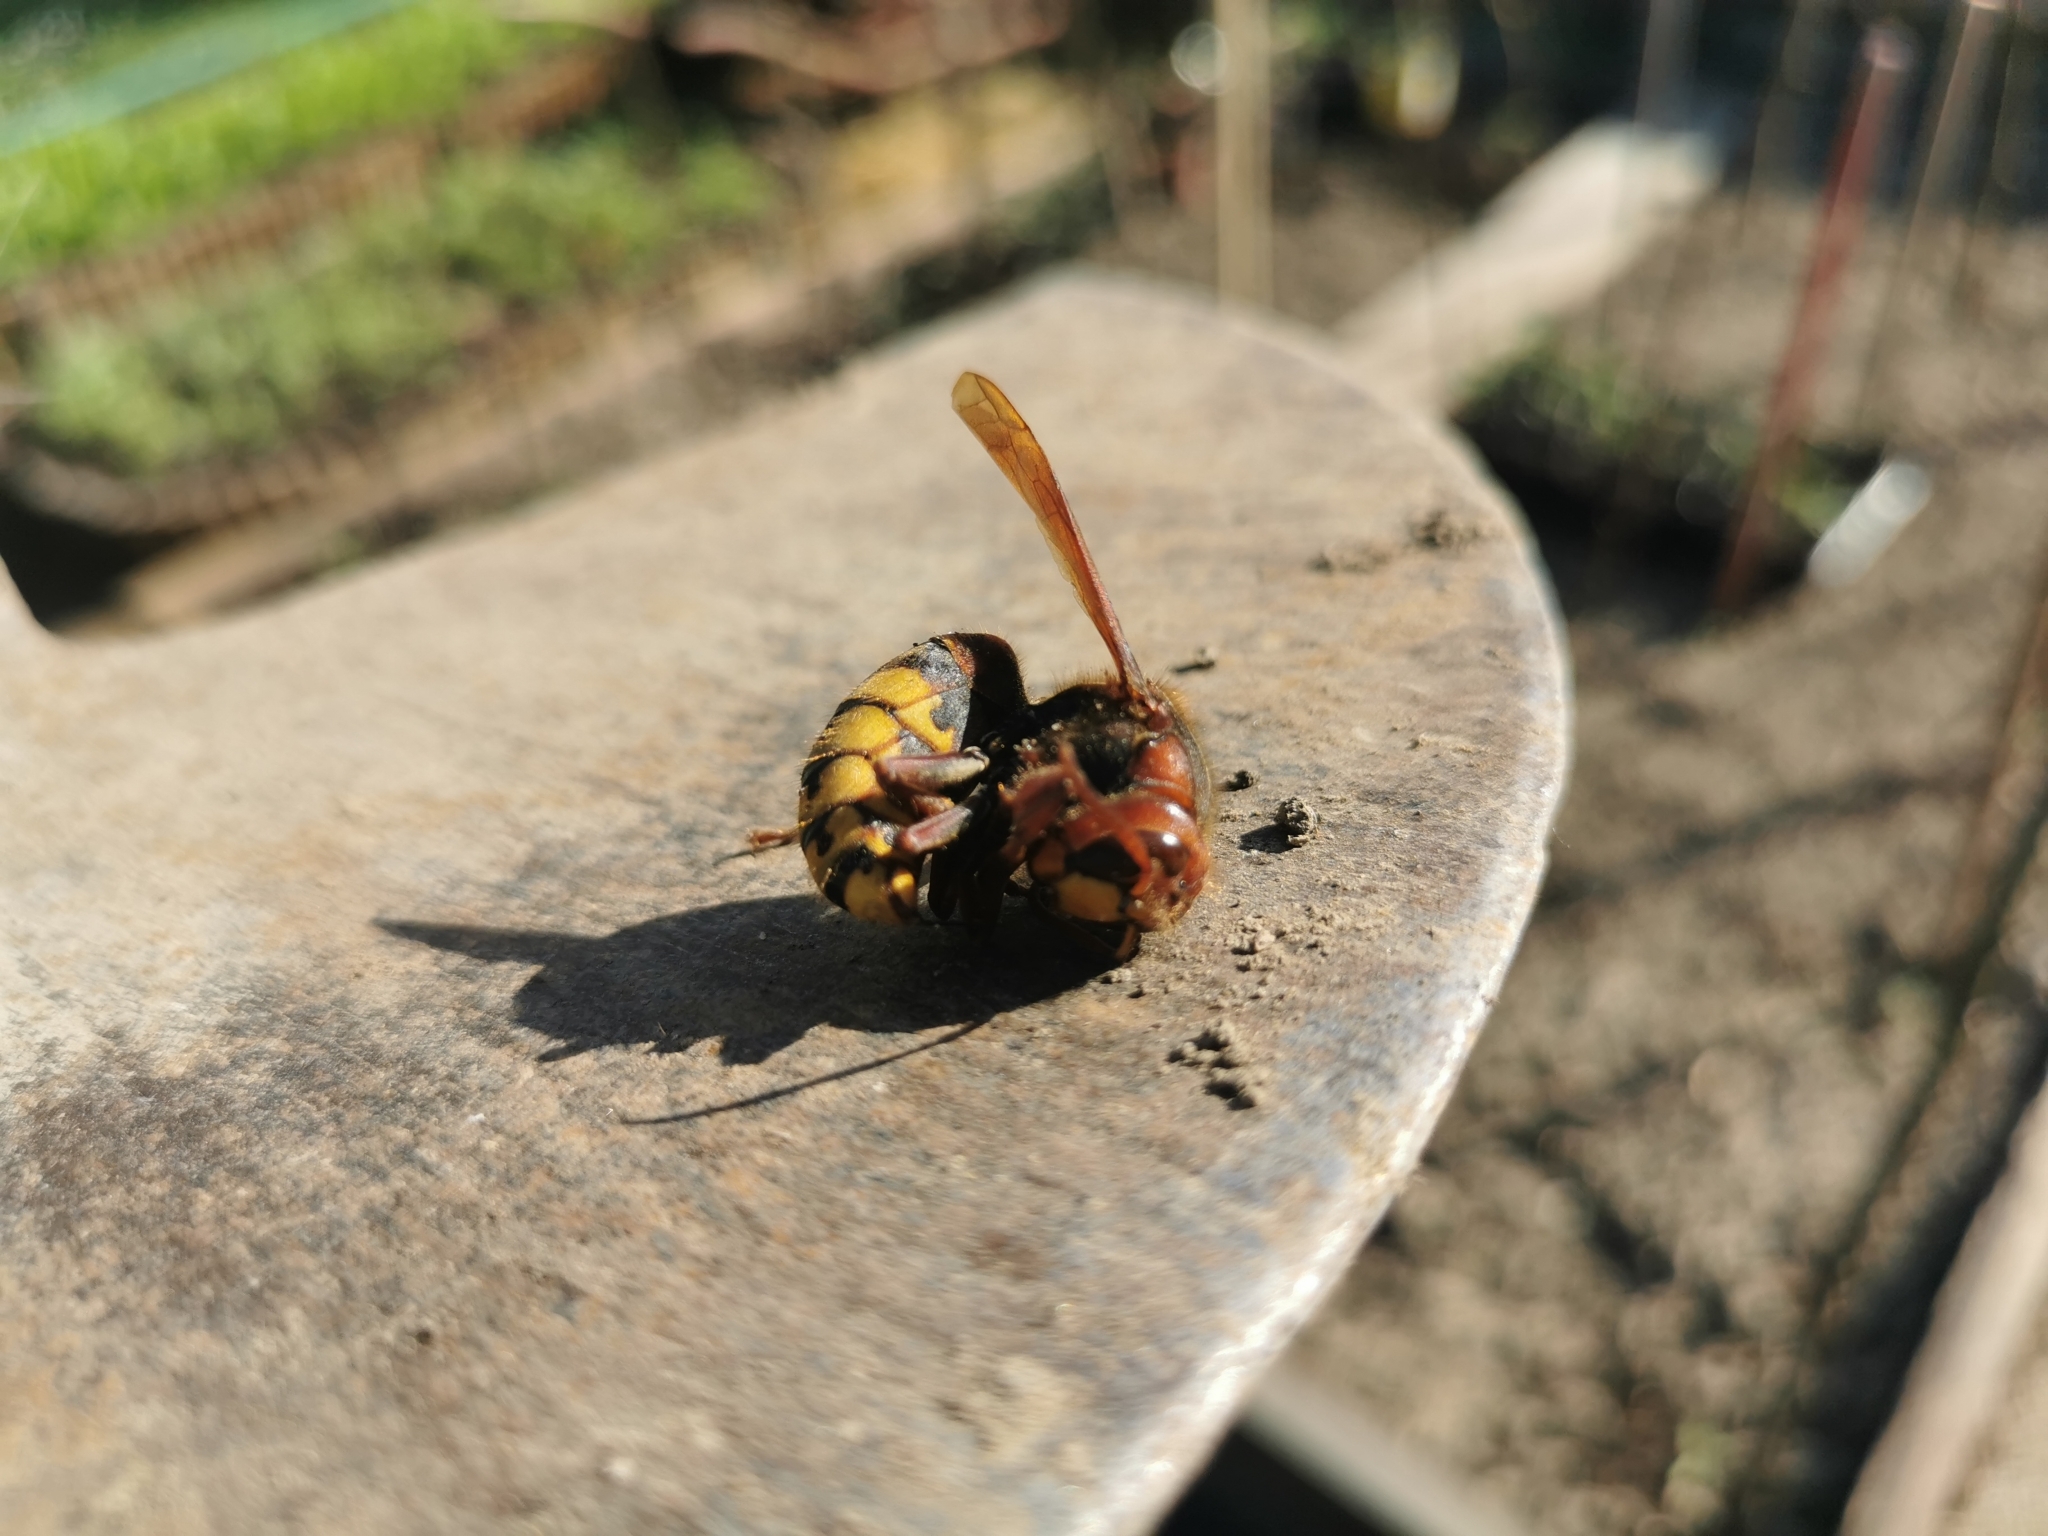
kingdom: Animalia
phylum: Arthropoda
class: Insecta
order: Hymenoptera
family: Vespidae
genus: Vespa
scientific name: Vespa crabro
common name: Hornet
